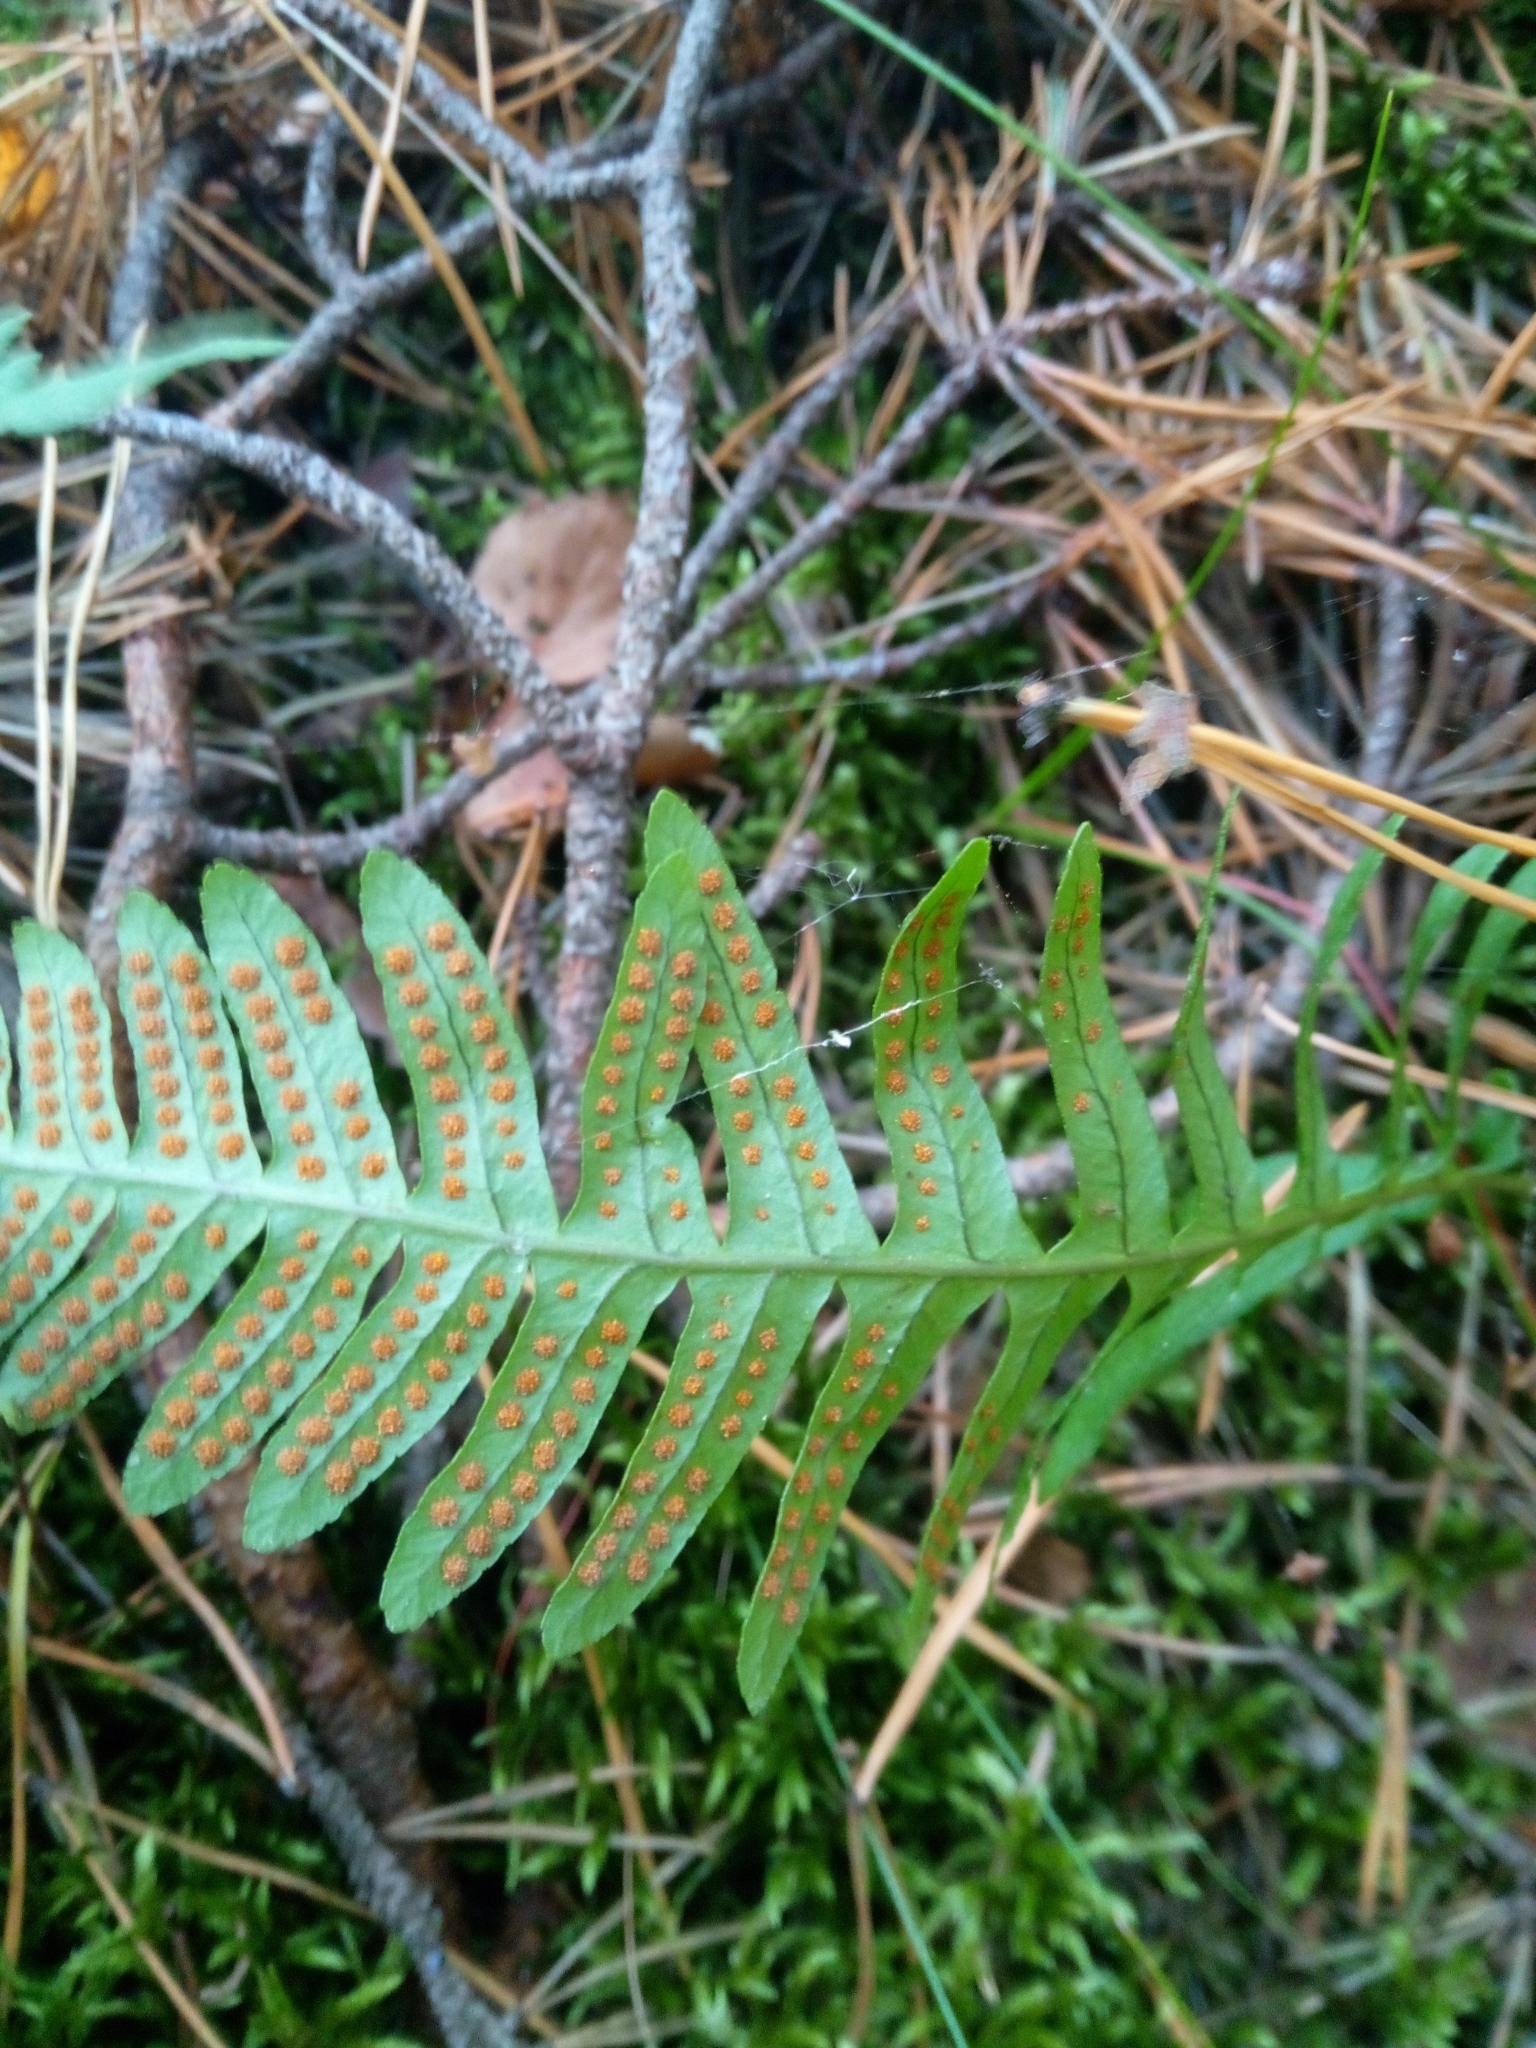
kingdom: Plantae
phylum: Tracheophyta
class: Polypodiopsida
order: Polypodiales
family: Polypodiaceae
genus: Polypodium
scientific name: Polypodium vulgare
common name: Common polypody
